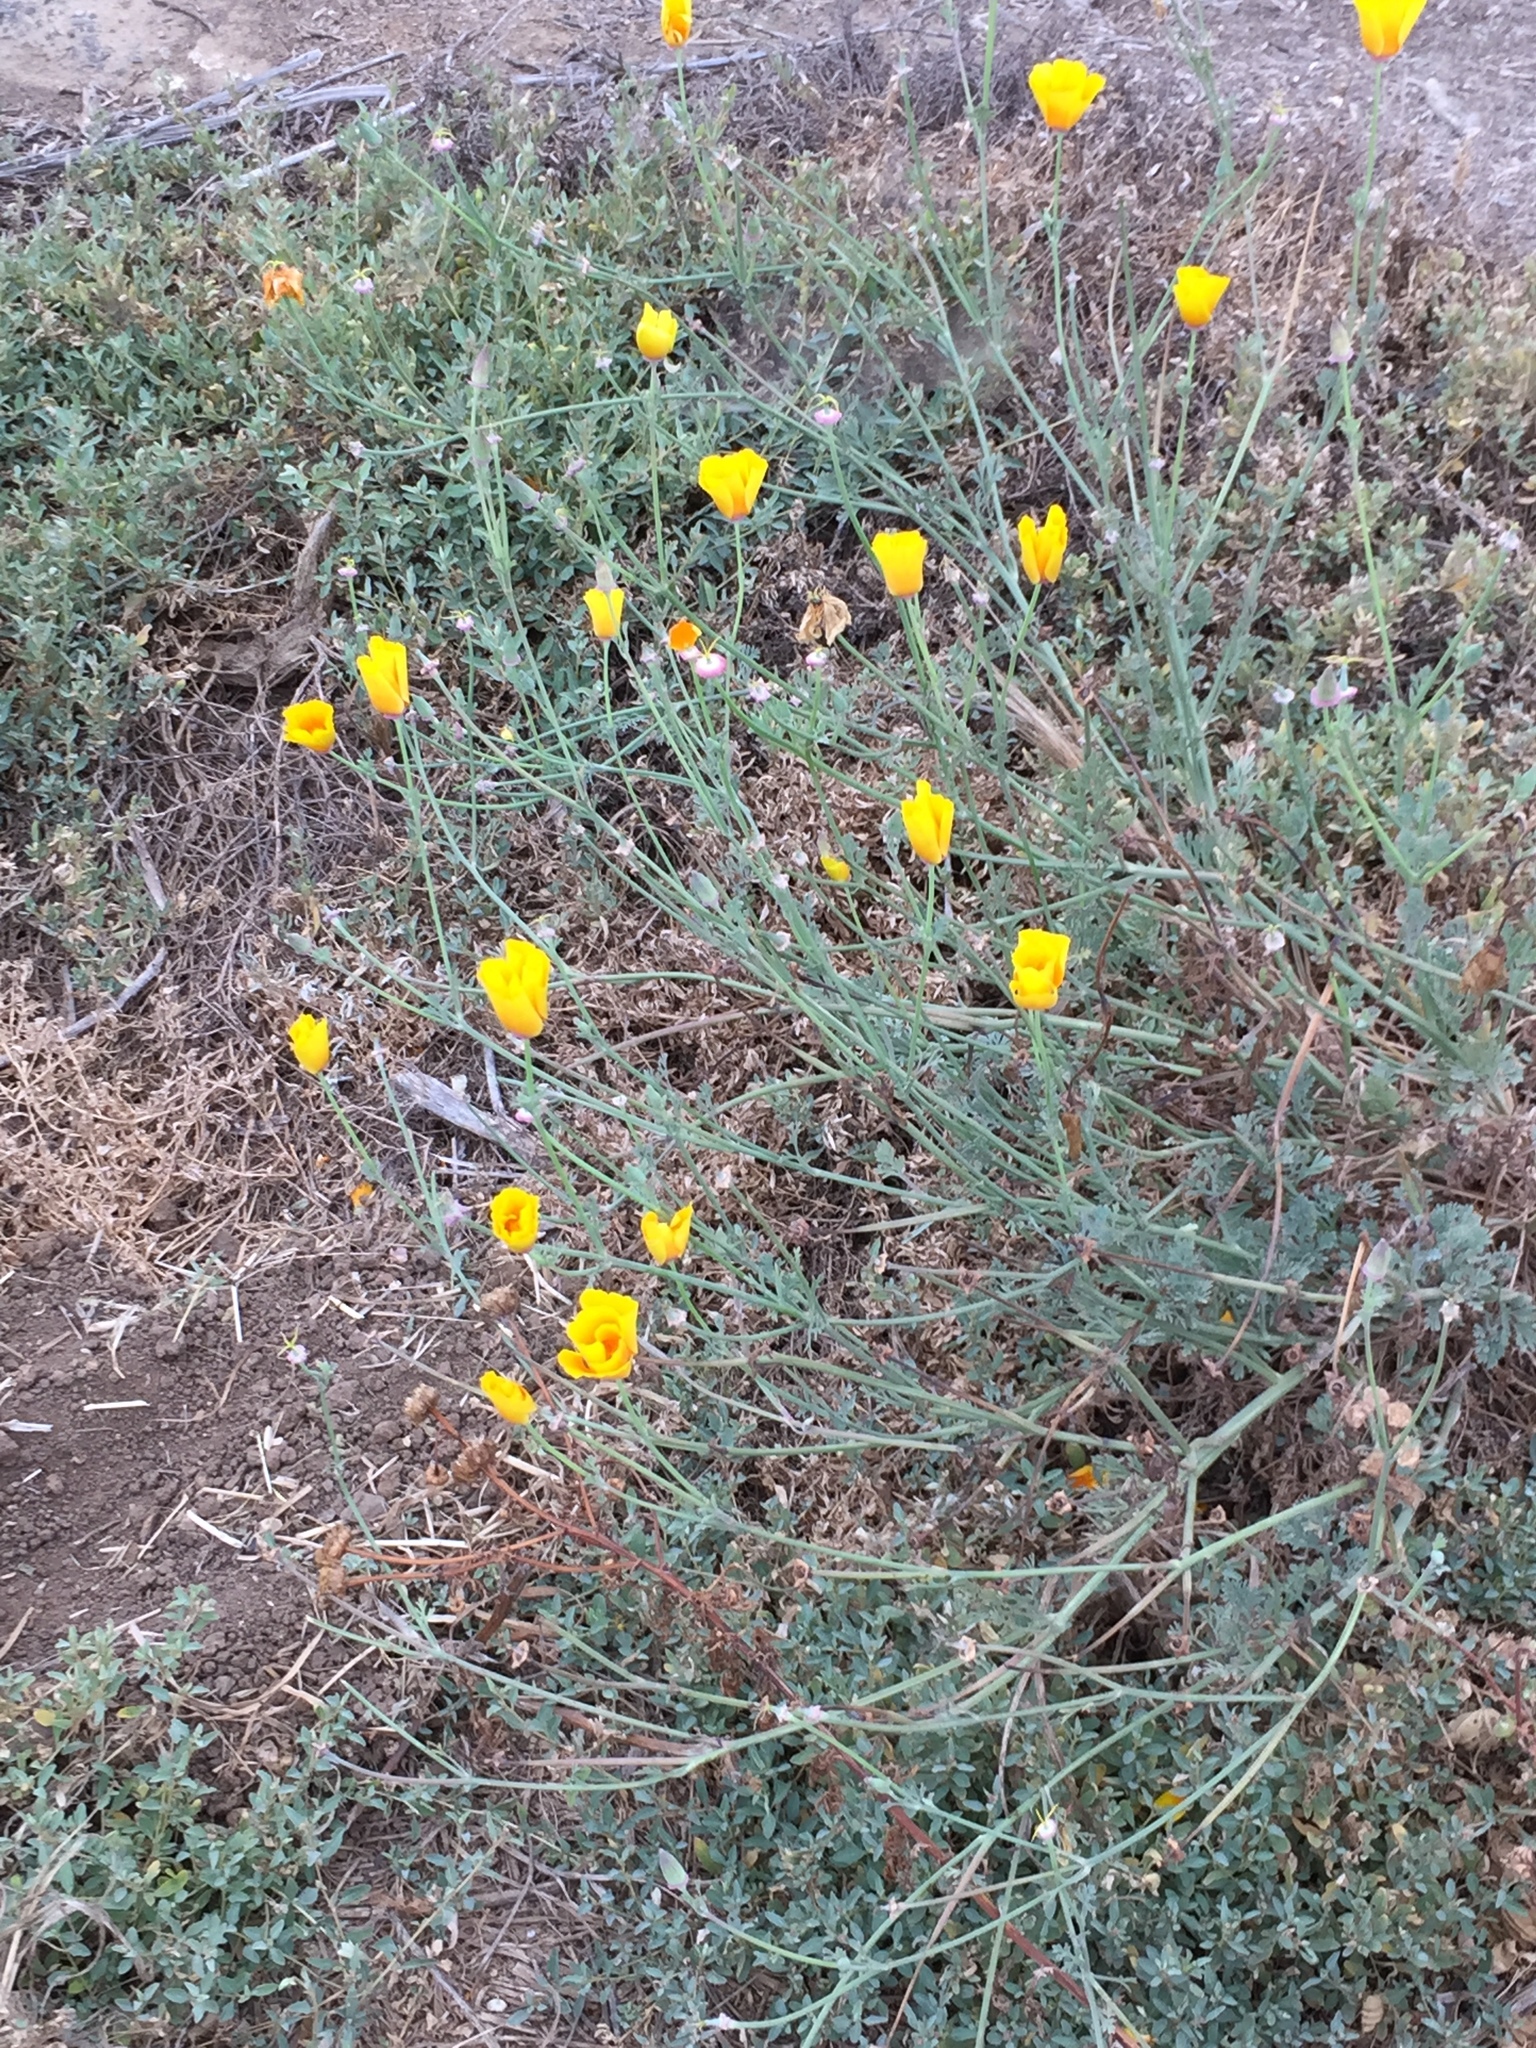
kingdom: Plantae
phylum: Tracheophyta
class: Magnoliopsida
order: Ranunculales
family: Papaveraceae
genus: Eschscholzia
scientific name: Eschscholzia californica
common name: California poppy
